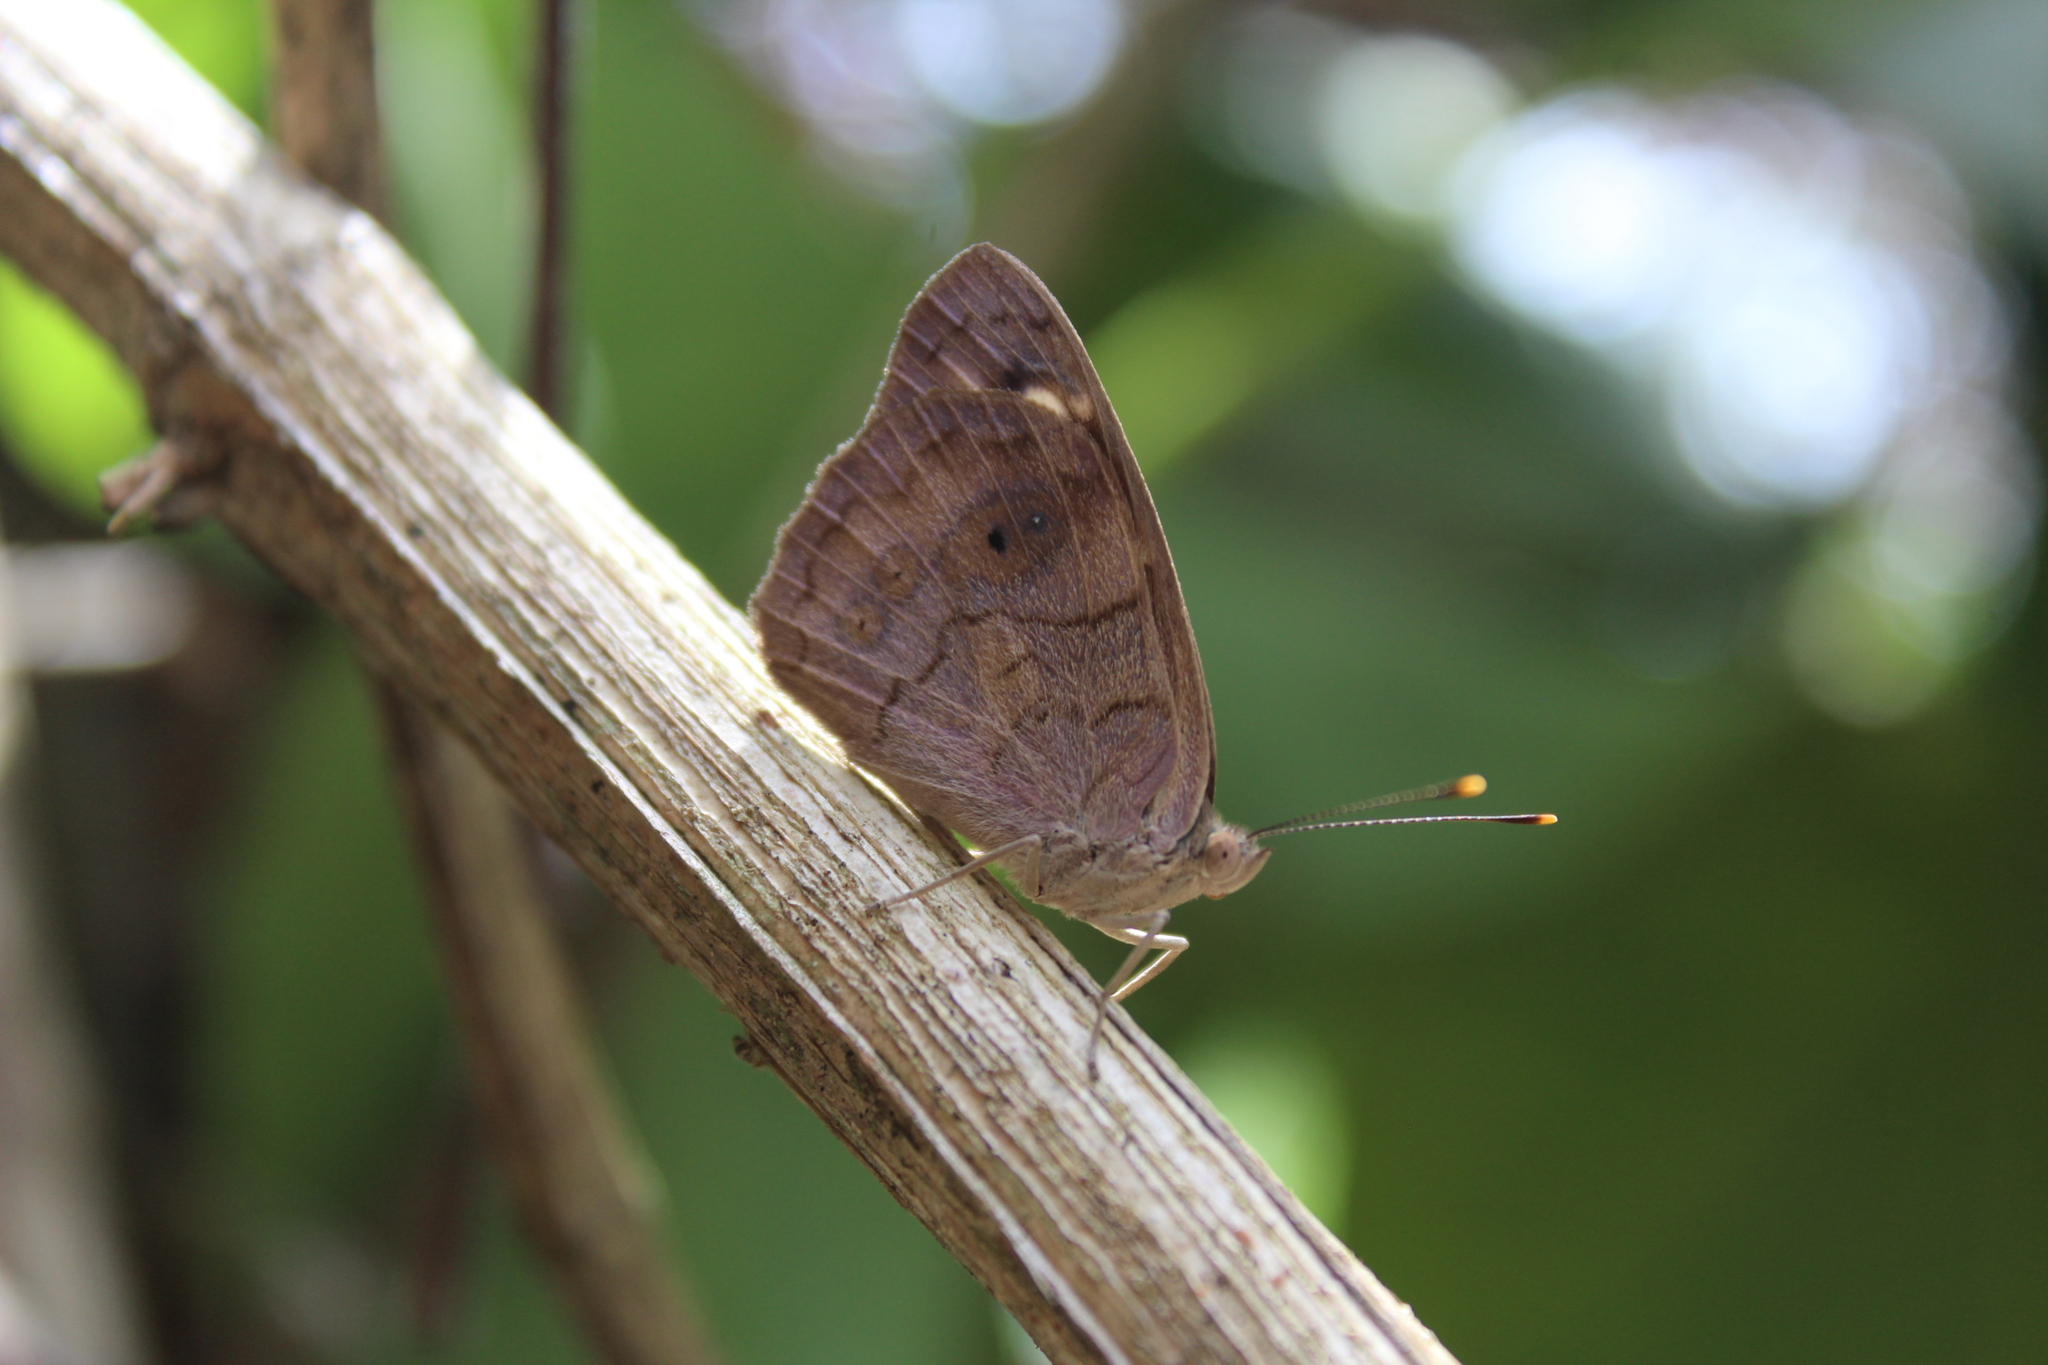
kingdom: Animalia
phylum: Arthropoda
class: Insecta
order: Lepidoptera
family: Nymphalidae
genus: Eunica
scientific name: Eunica monima
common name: Dingy purplewing
